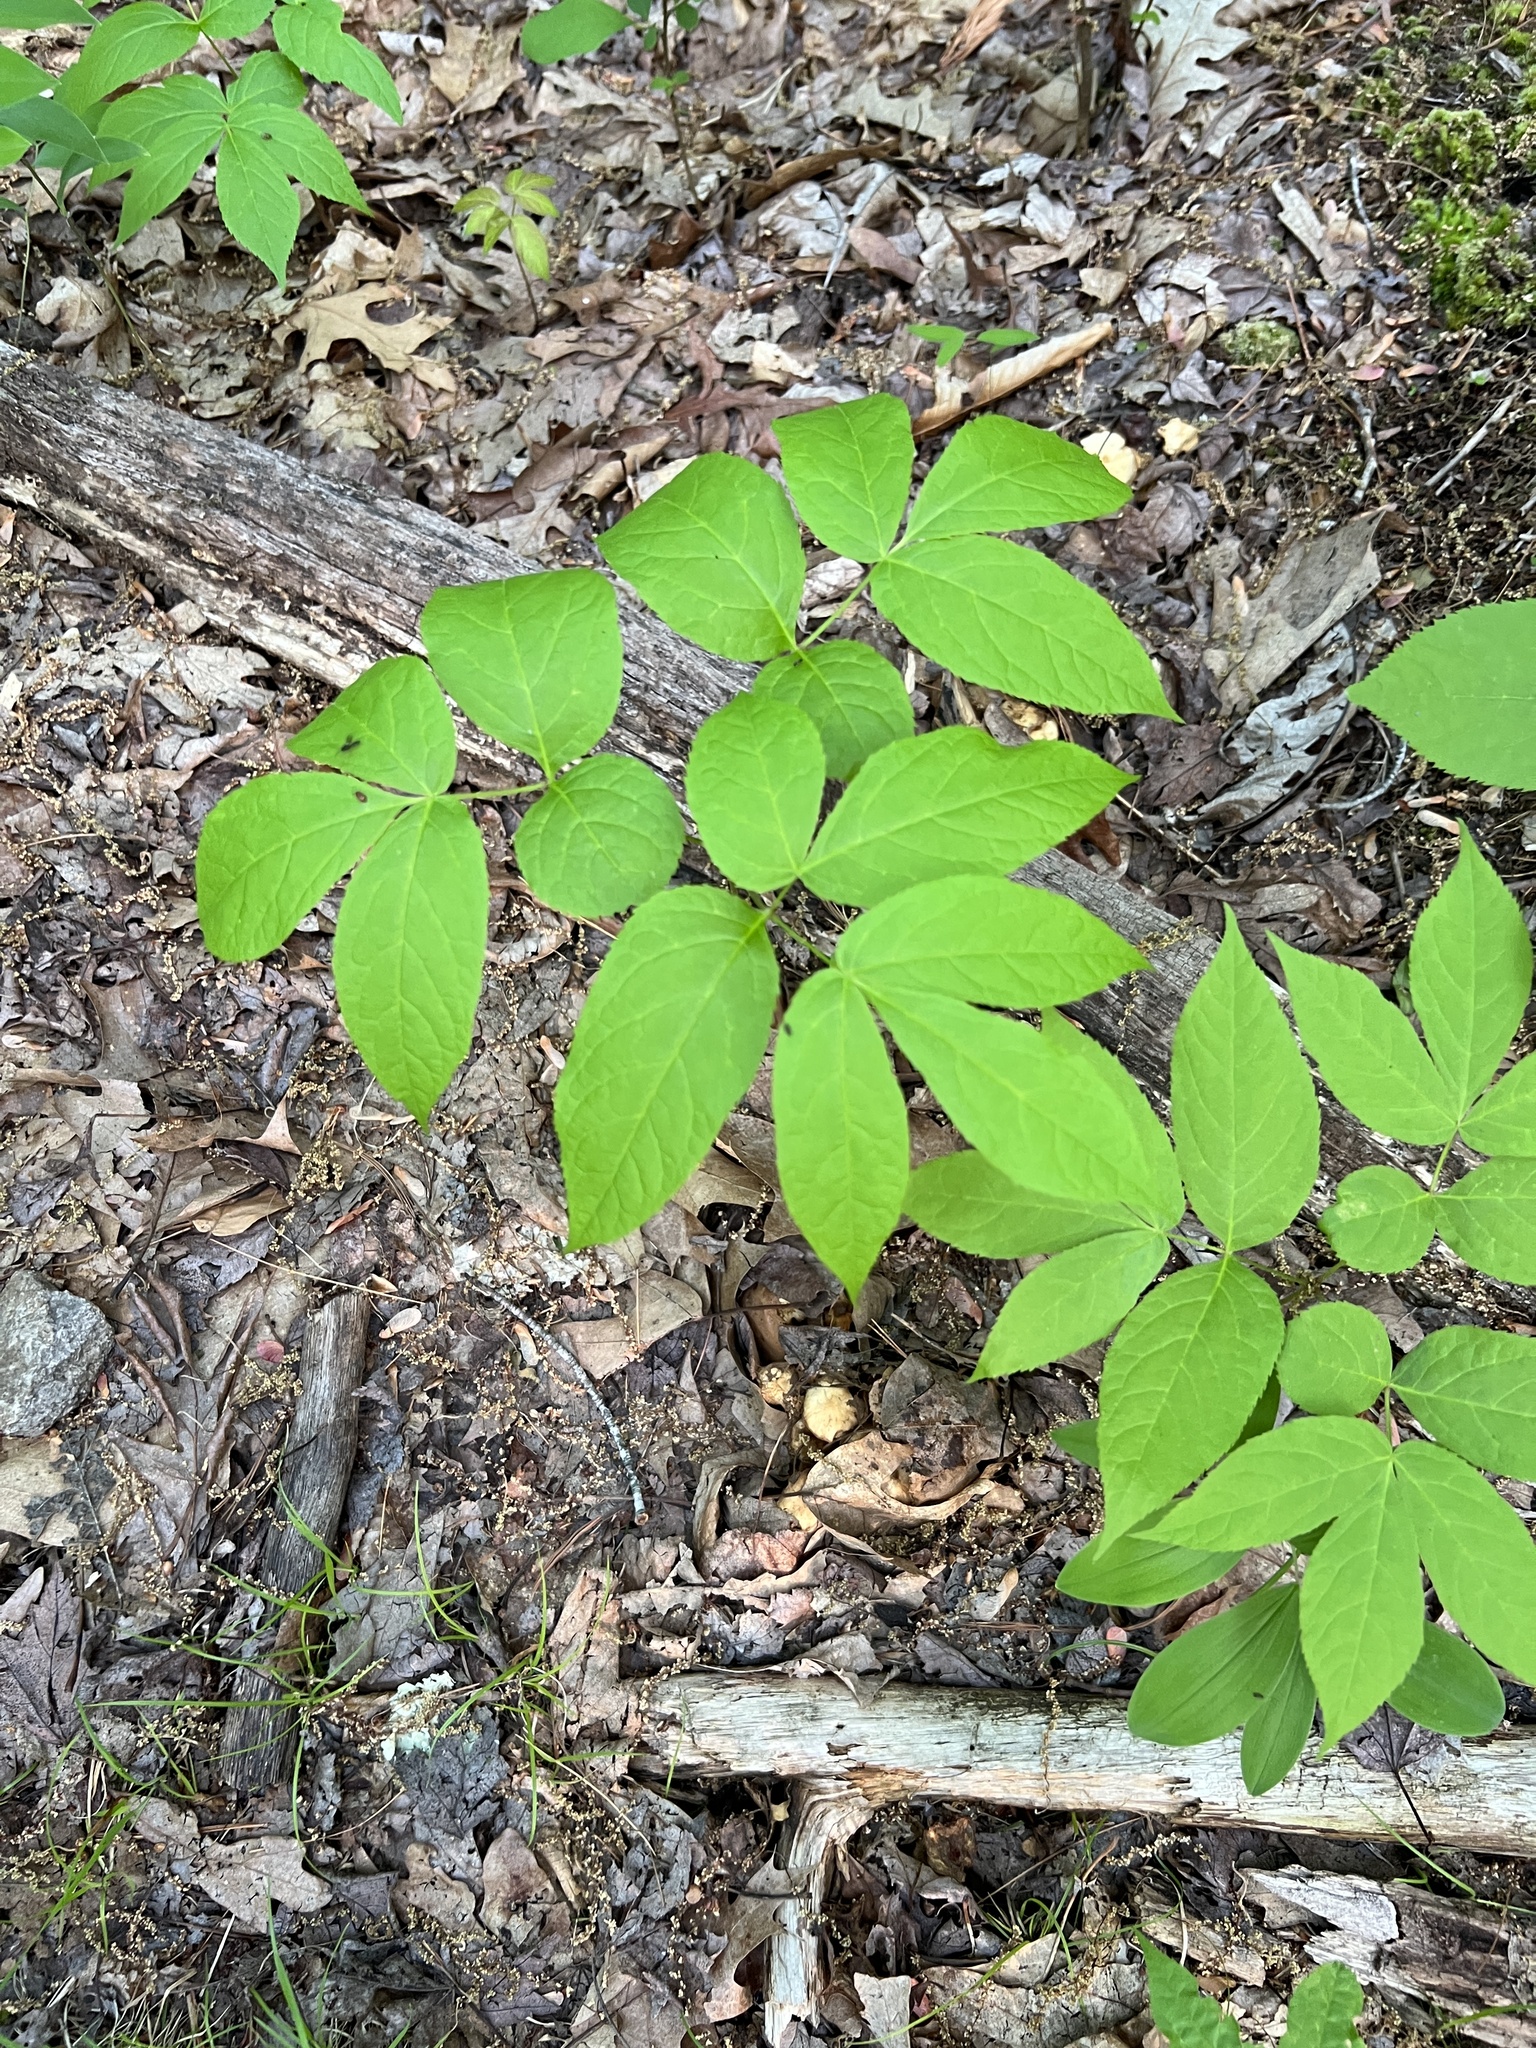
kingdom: Plantae
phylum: Tracheophyta
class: Magnoliopsida
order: Apiales
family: Araliaceae
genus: Aralia
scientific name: Aralia nudicaulis
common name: Wild sarsaparilla
